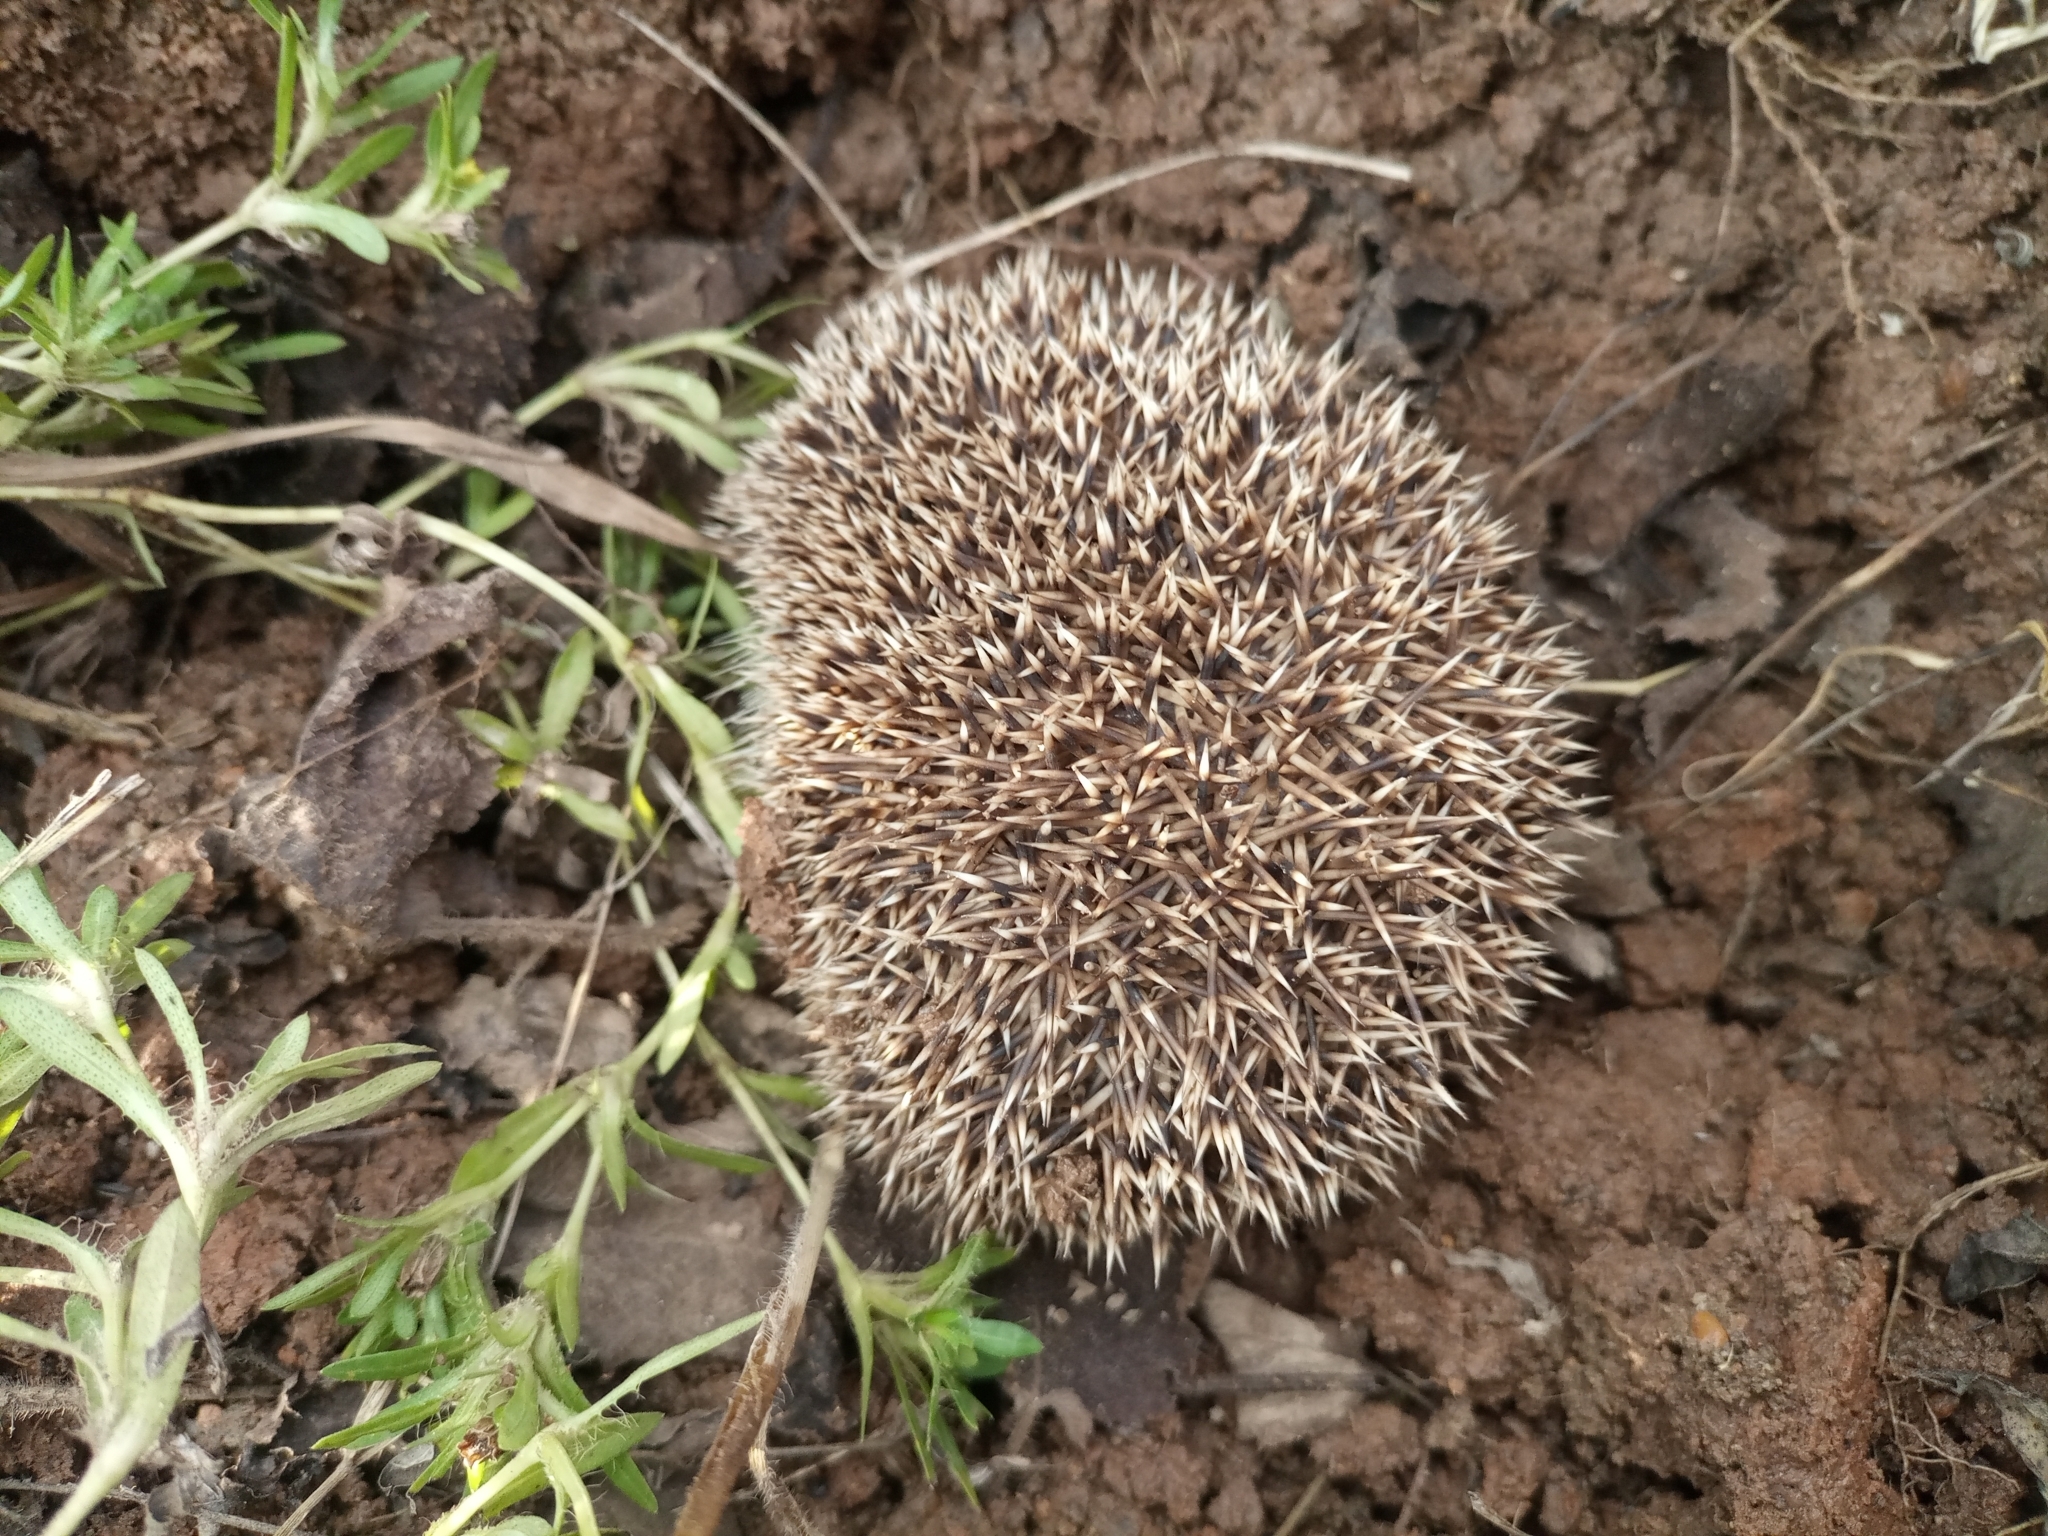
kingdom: Animalia
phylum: Chordata
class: Mammalia
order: Erinaceomorpha
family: Erinaceidae
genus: Atelerix
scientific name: Atelerix albiventris
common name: Four-toed hedgehog
